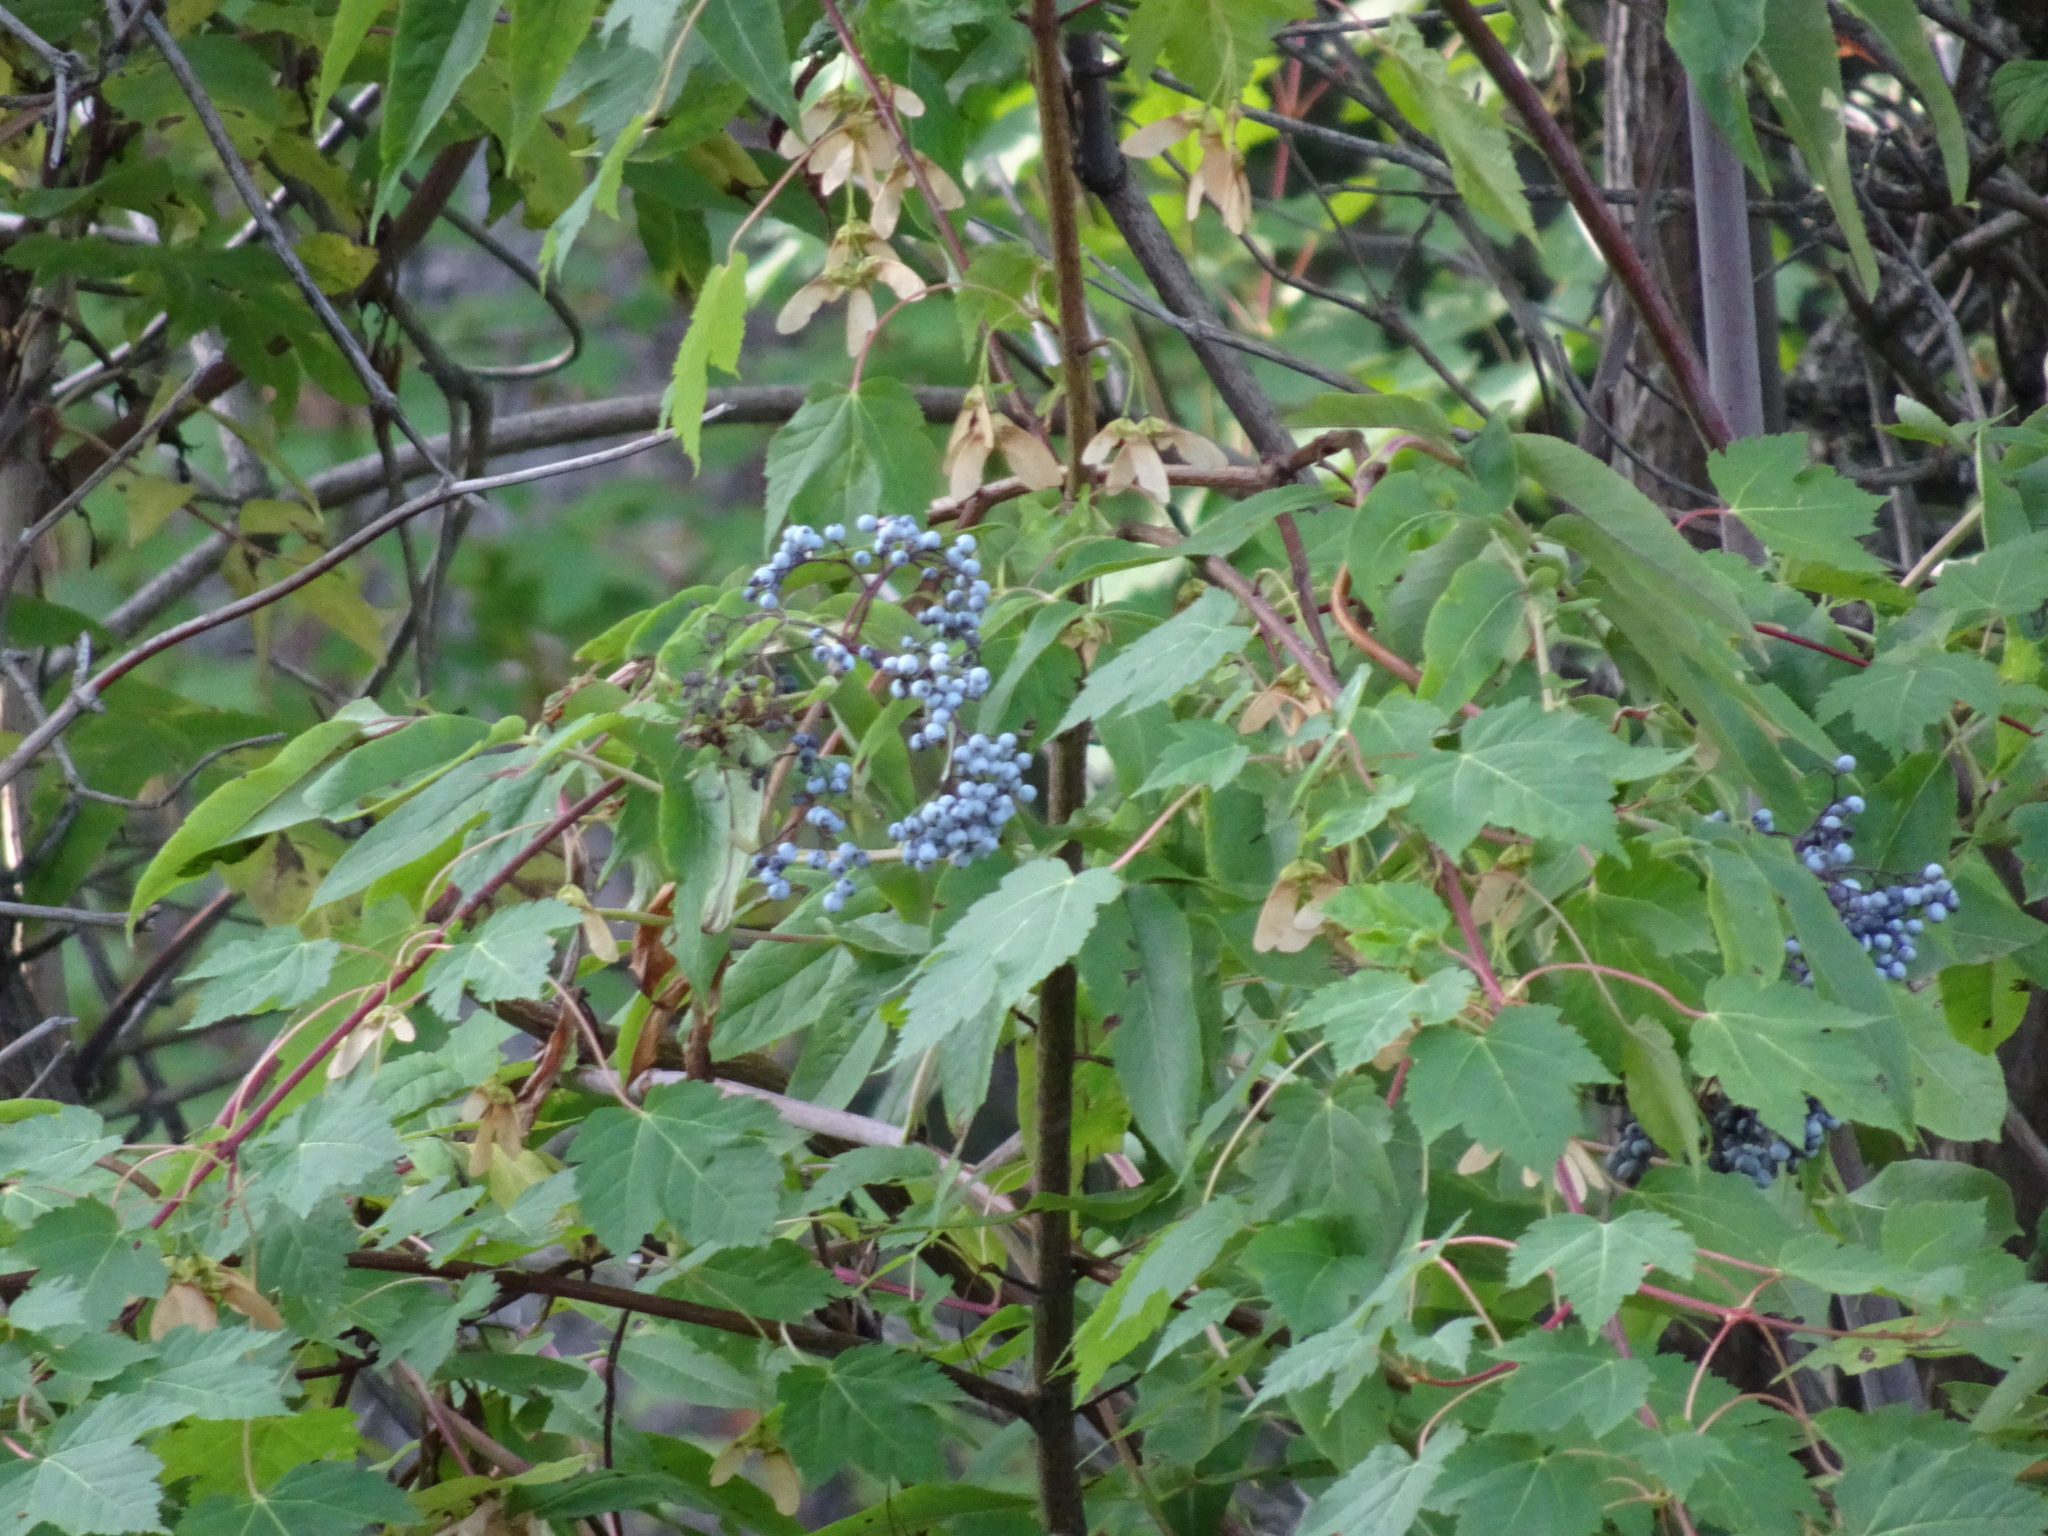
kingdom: Plantae
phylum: Tracheophyta
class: Magnoliopsida
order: Dipsacales
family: Viburnaceae
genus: Sambucus
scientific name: Sambucus cerulea
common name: Blue elder
